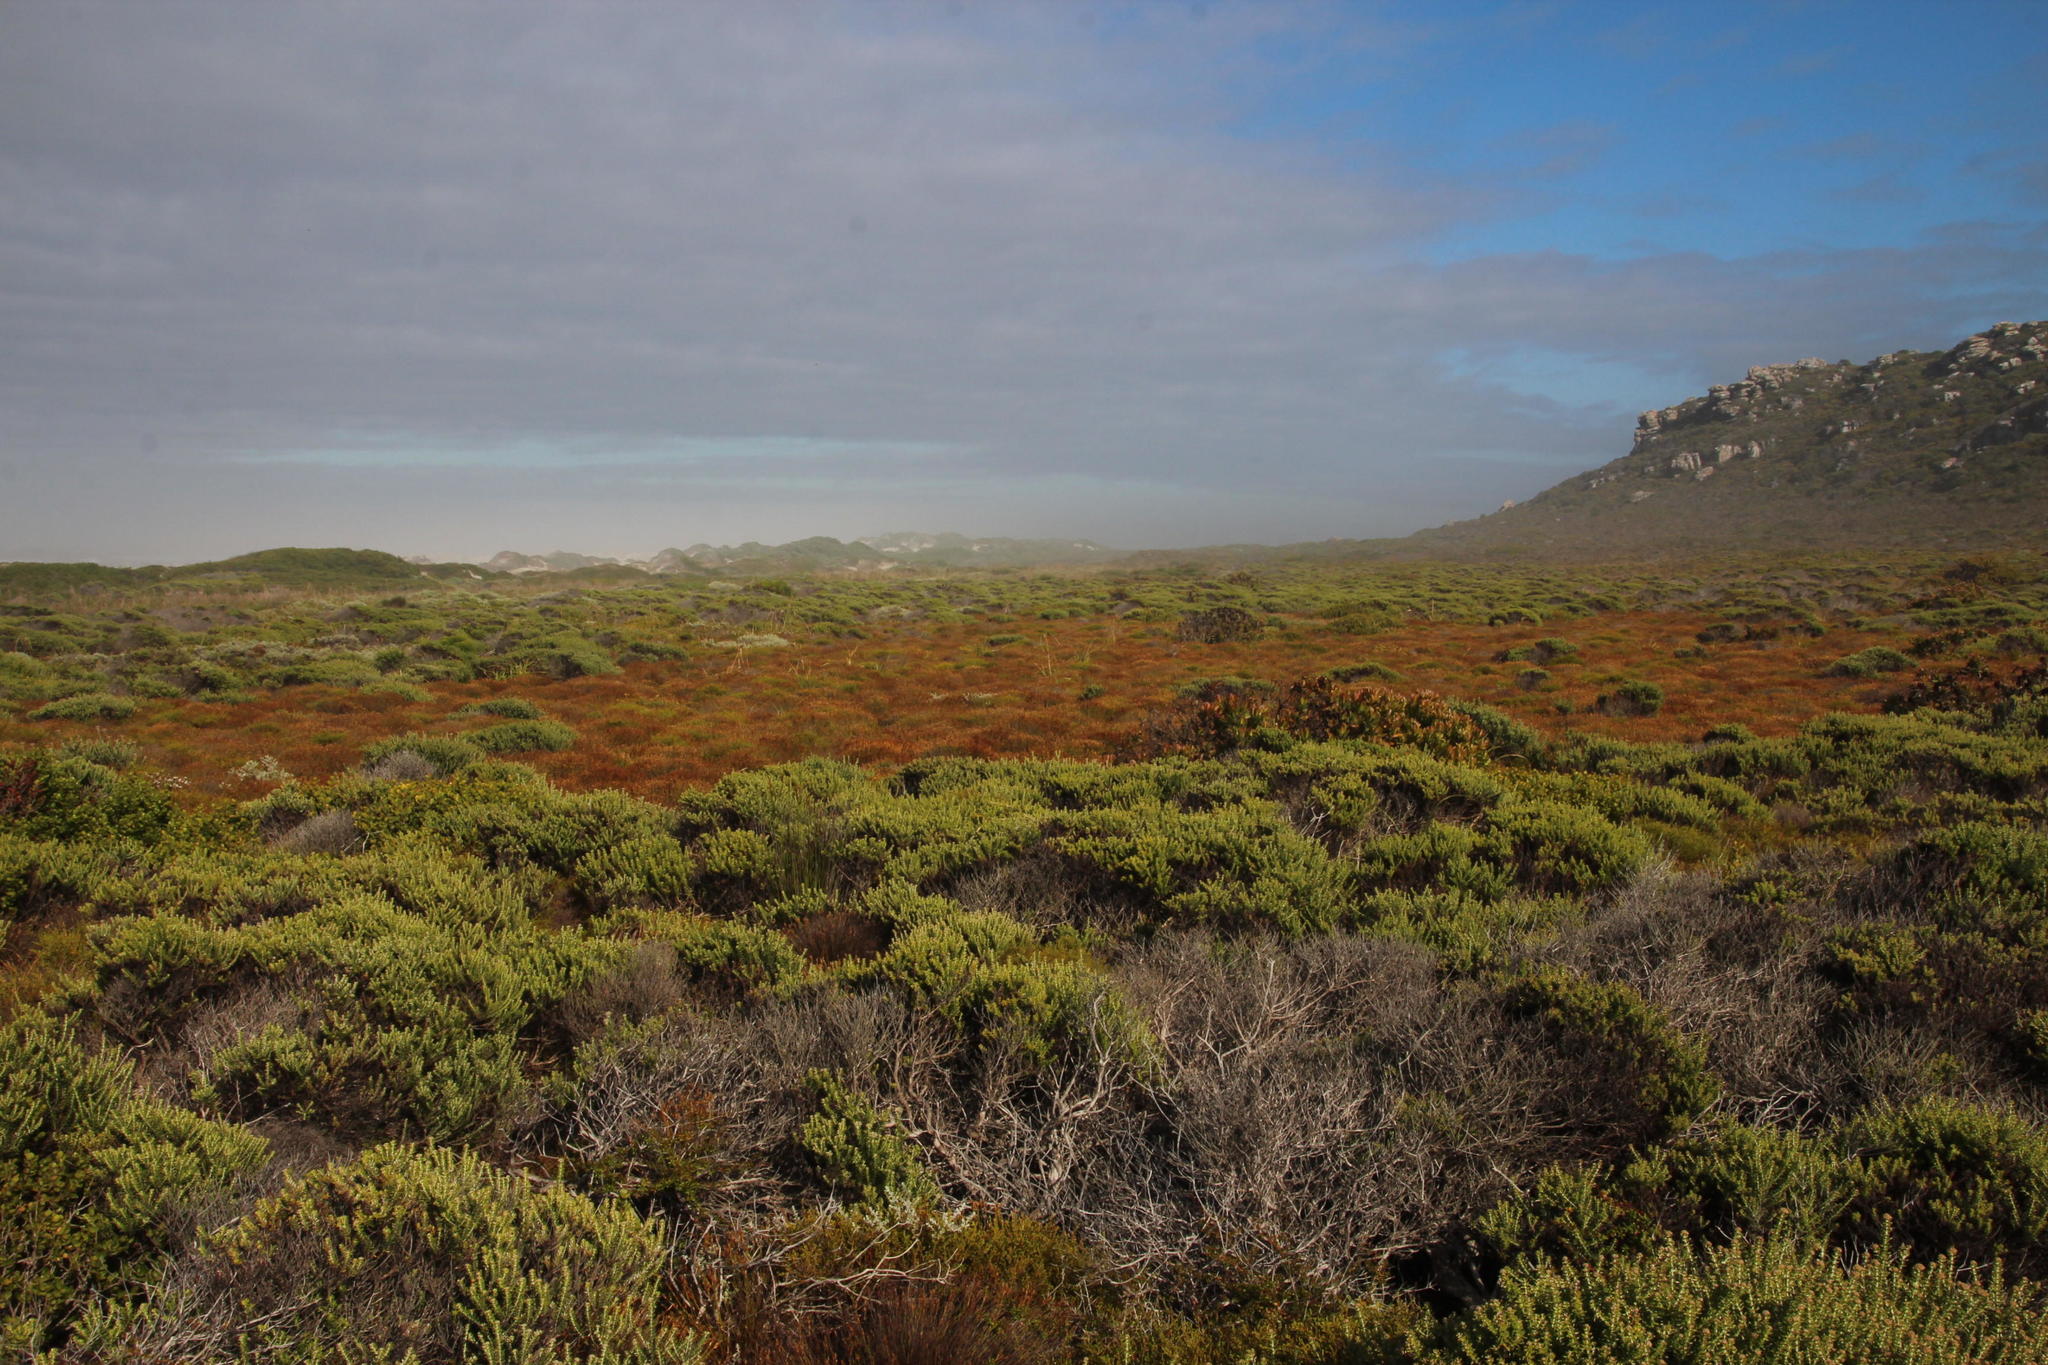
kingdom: Plantae
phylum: Tracheophyta
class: Liliopsida
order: Poales
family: Restionaceae
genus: Elegia
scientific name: Elegia juncea
